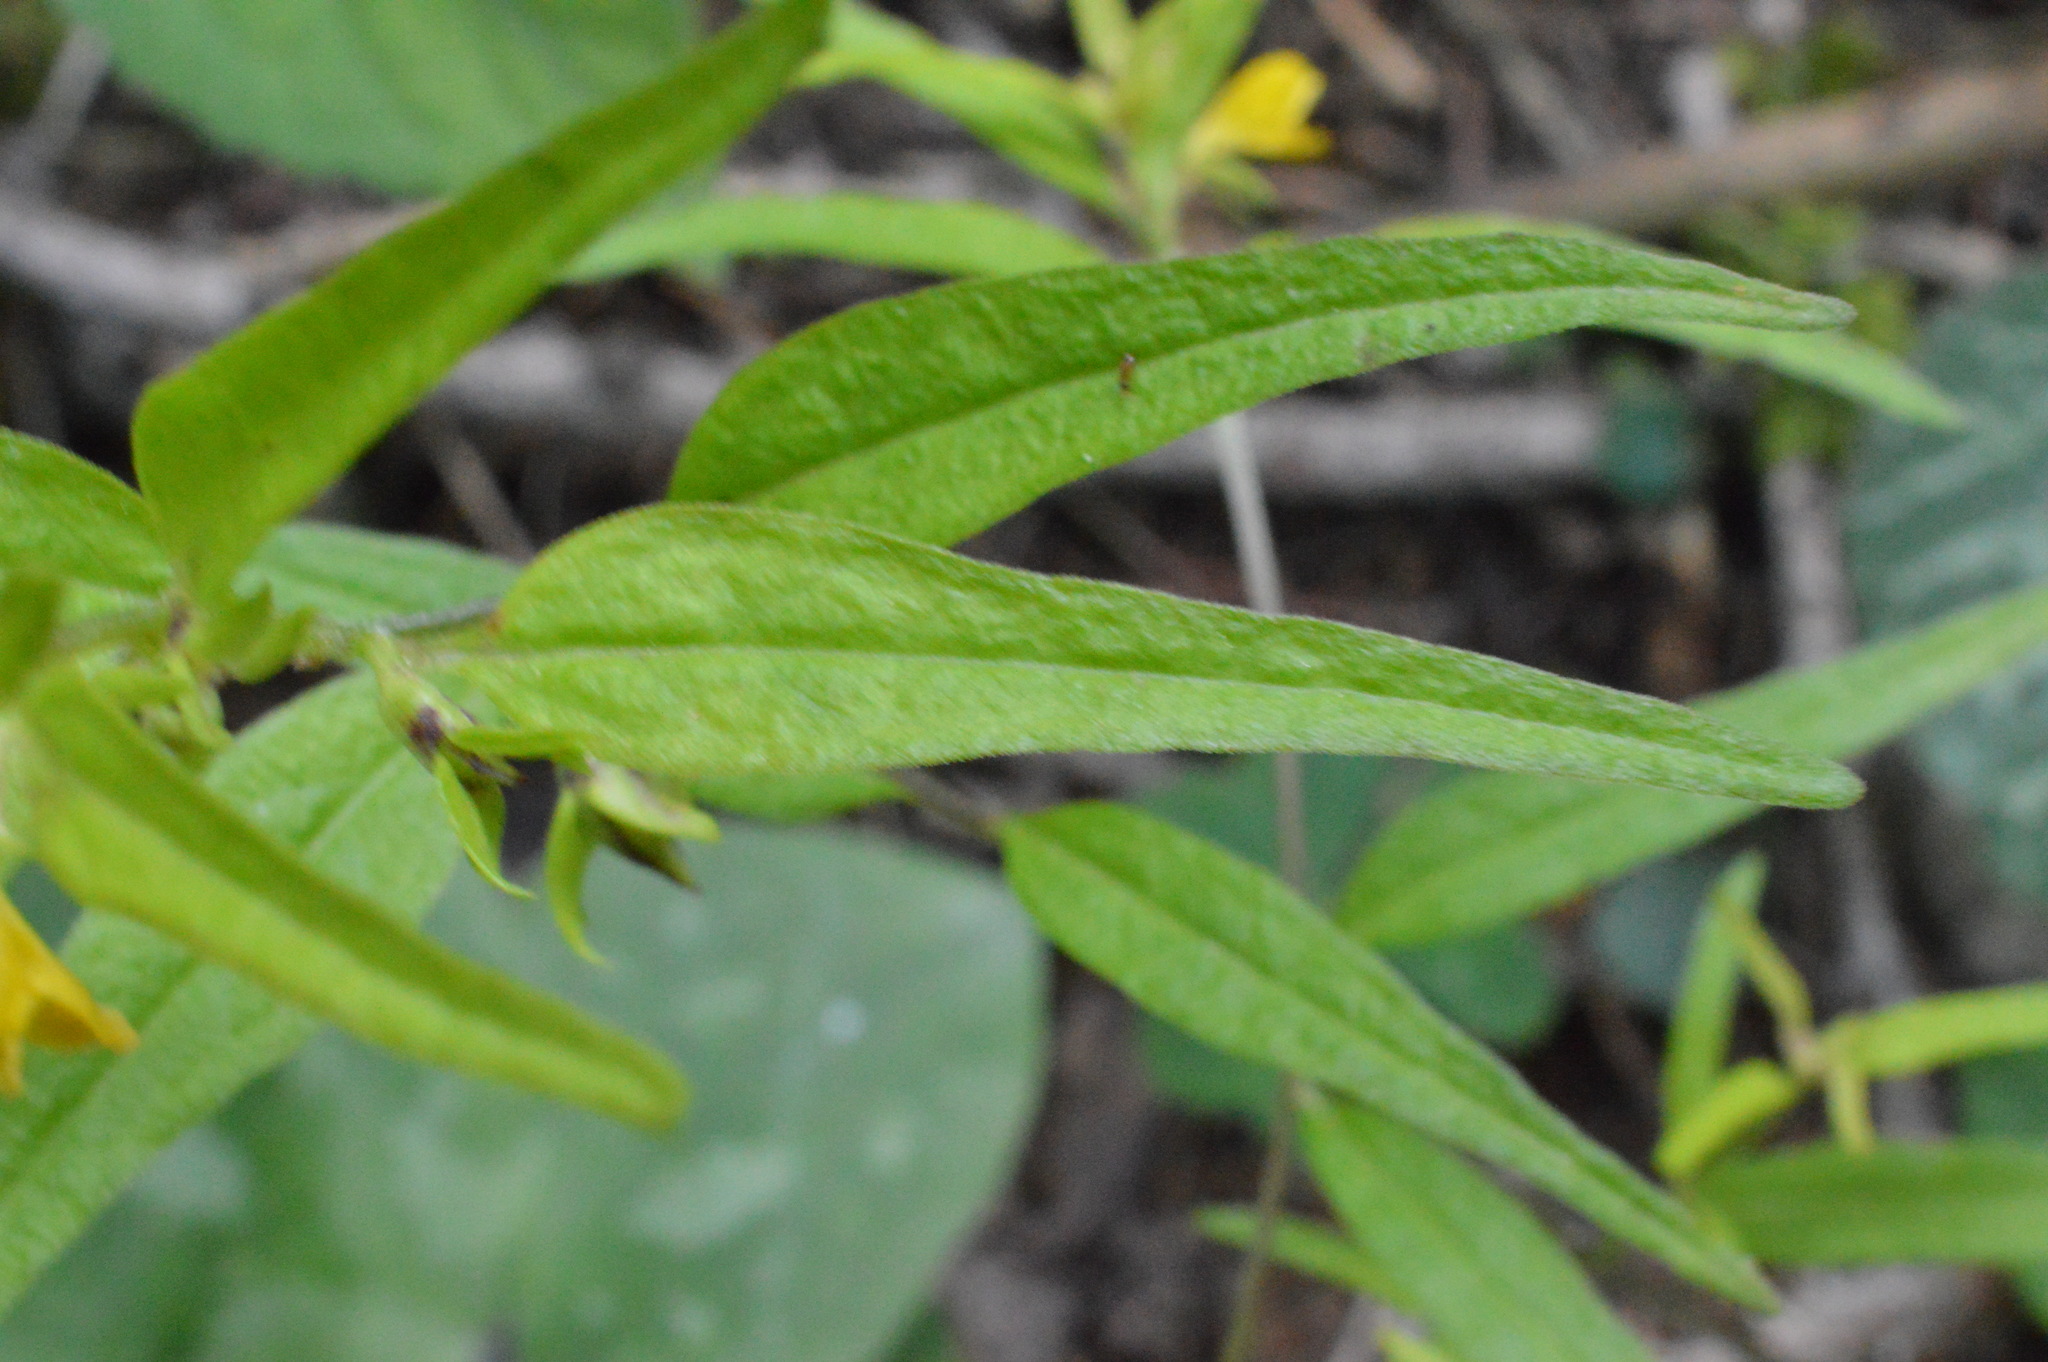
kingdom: Plantae
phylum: Tracheophyta
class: Magnoliopsida
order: Lamiales
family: Orobanchaceae
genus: Melampyrum
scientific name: Melampyrum sylvaticum
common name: Small cow-wheat
